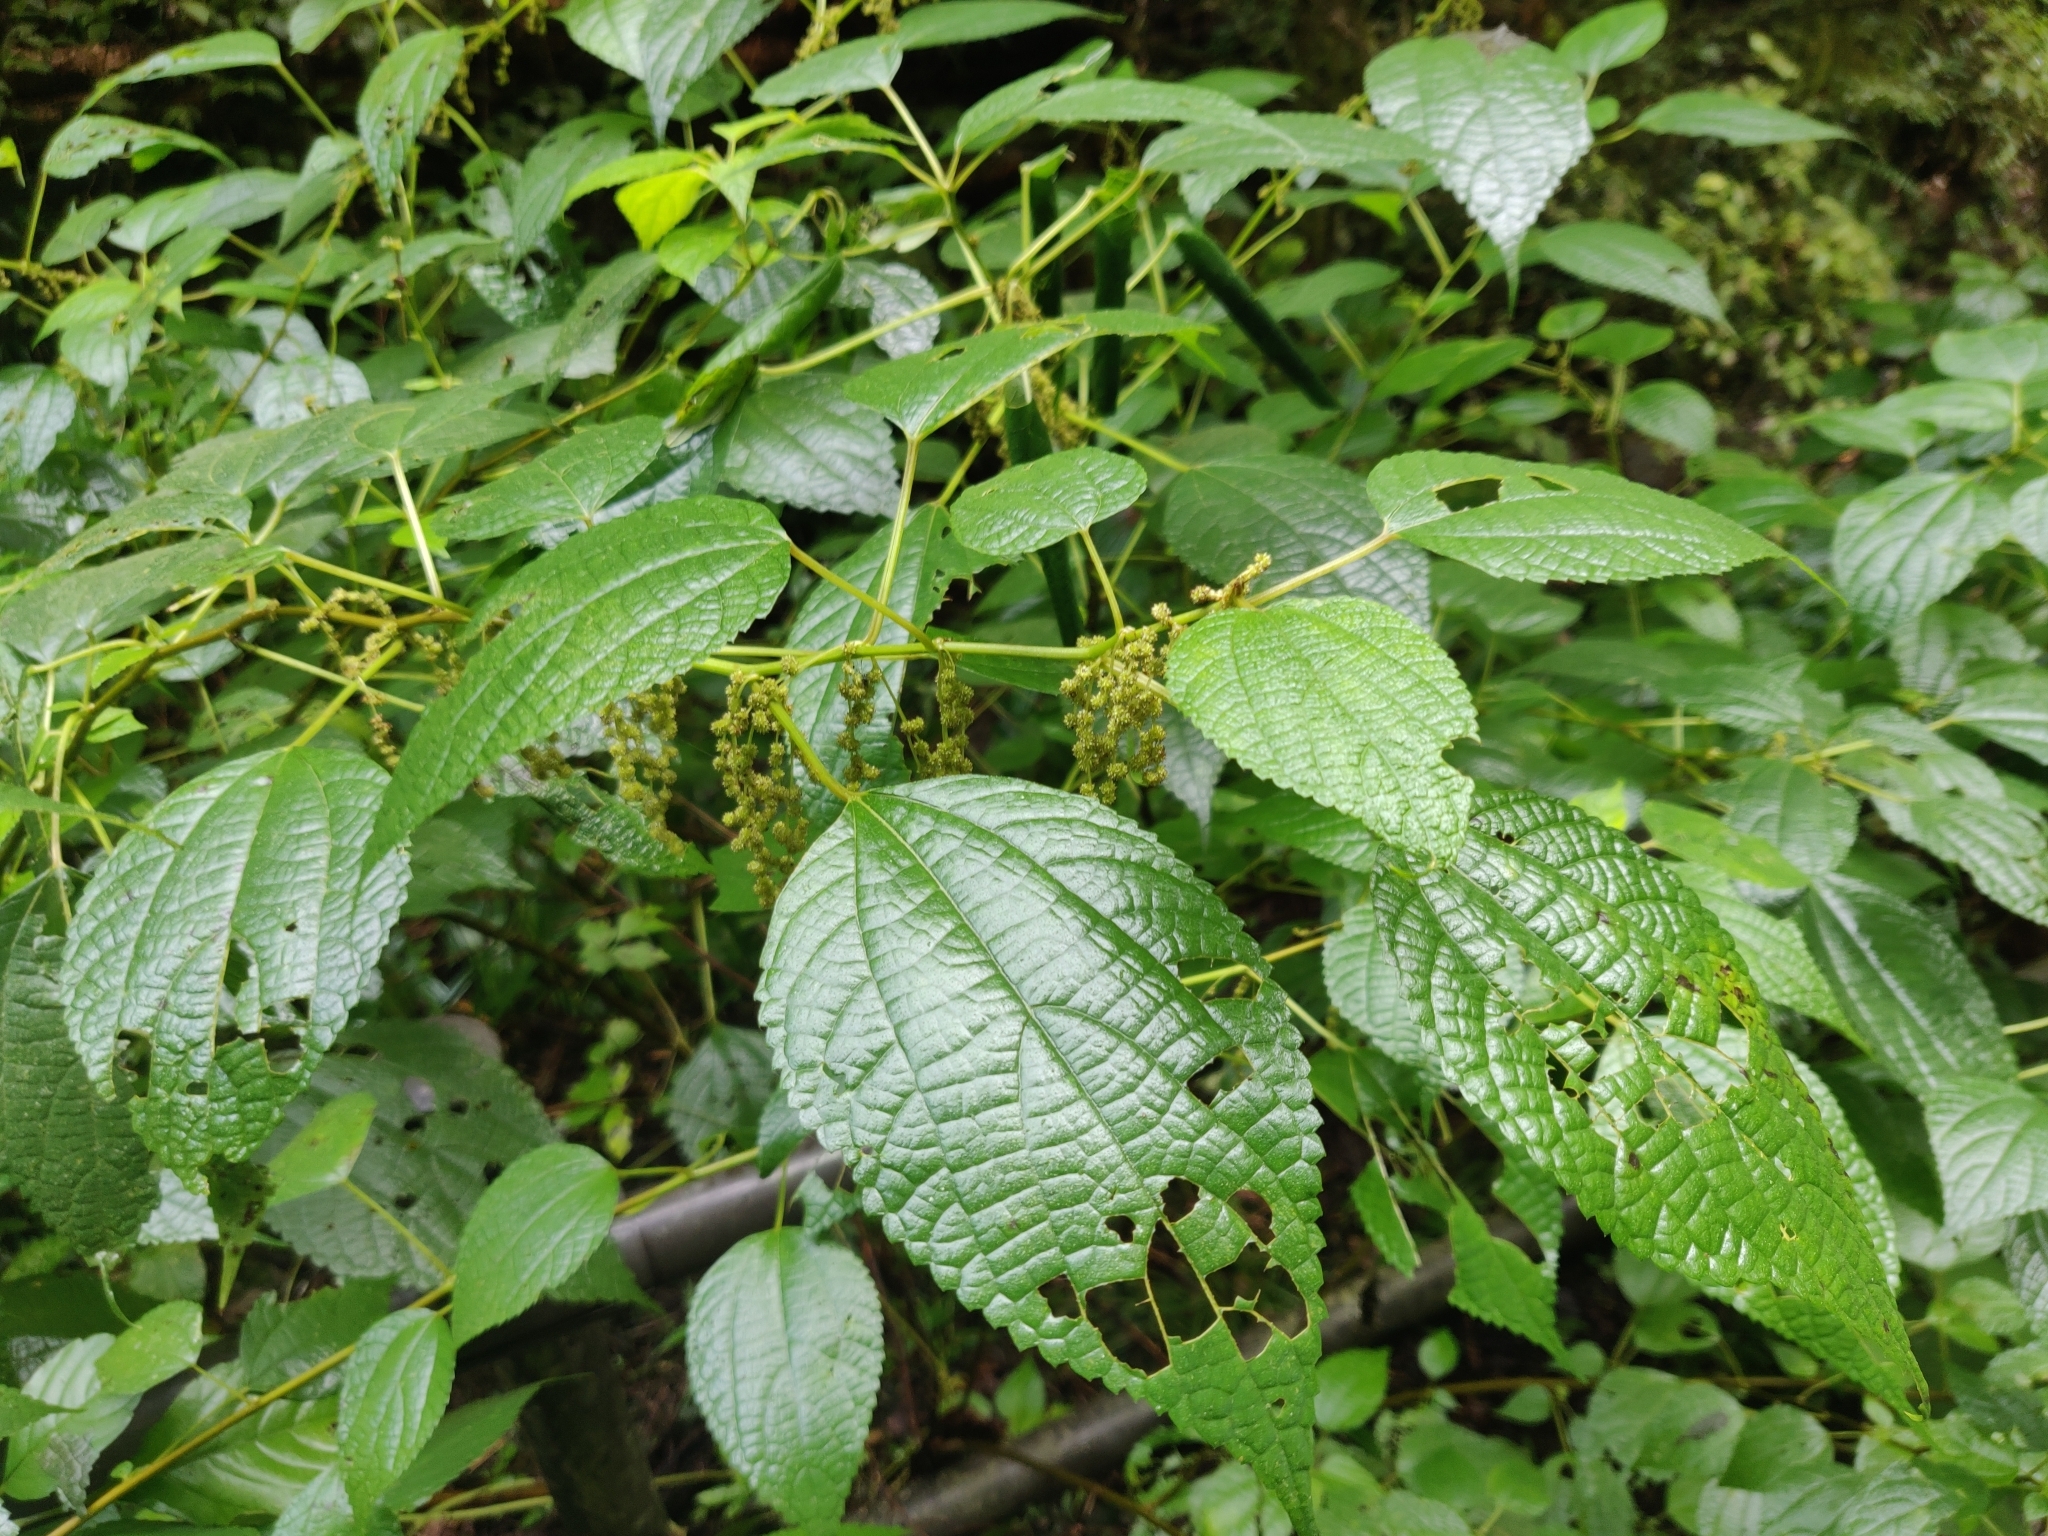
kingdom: Plantae
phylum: Tracheophyta
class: Magnoliopsida
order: Rosales
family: Urticaceae
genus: Boehmeria
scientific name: Boehmeria nivea
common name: Ramie chinese grass
